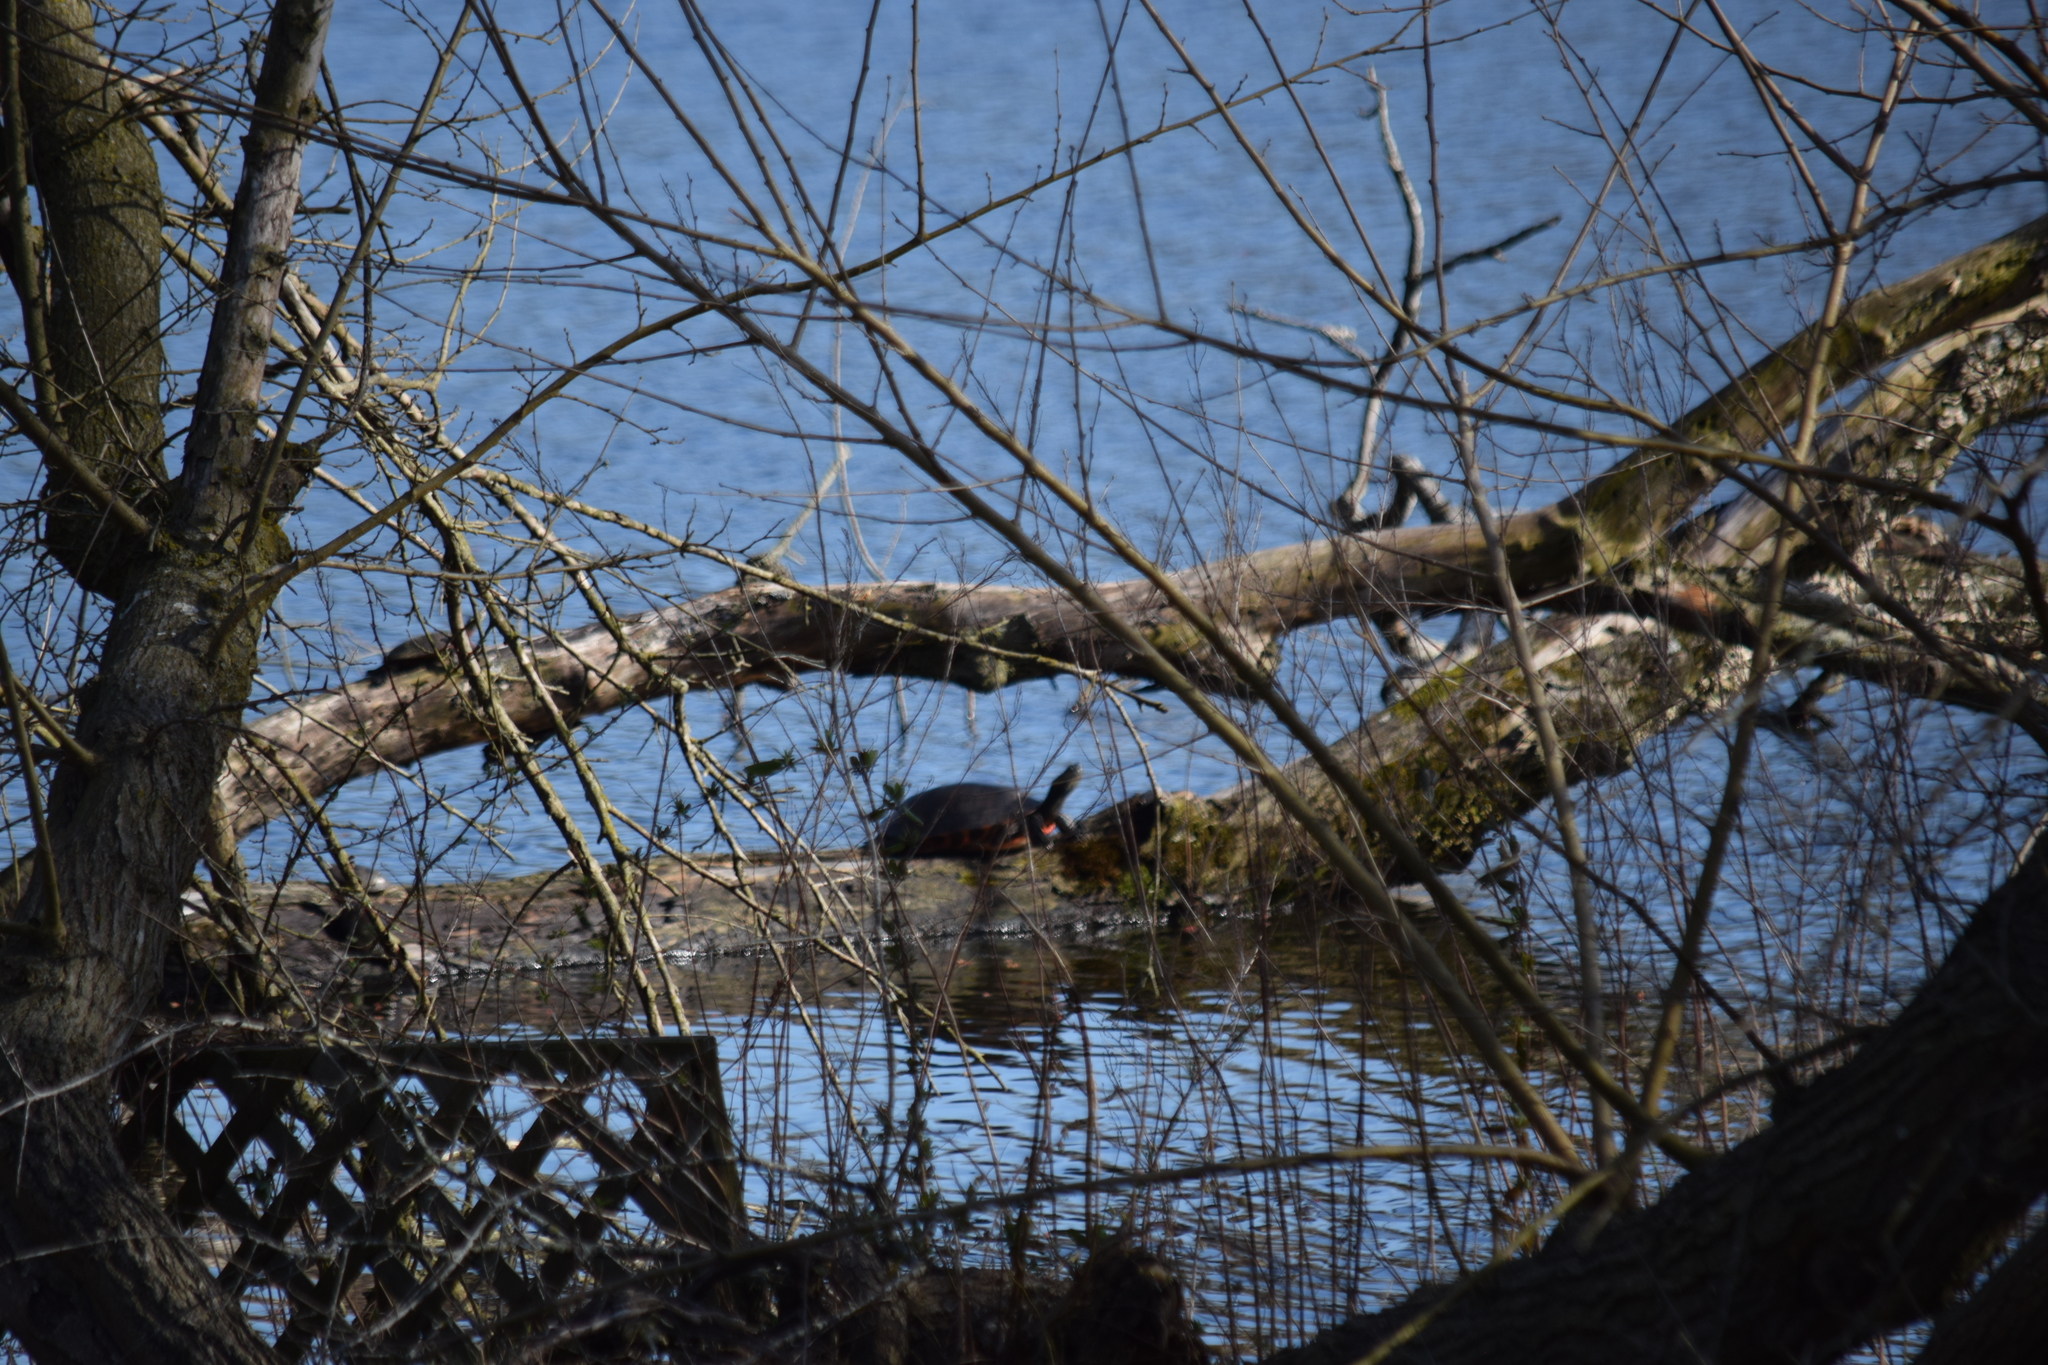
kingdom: Animalia
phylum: Chordata
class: Testudines
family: Emydidae
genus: Pseudemys
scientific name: Pseudemys rubriventris
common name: American red-bellied turtle
